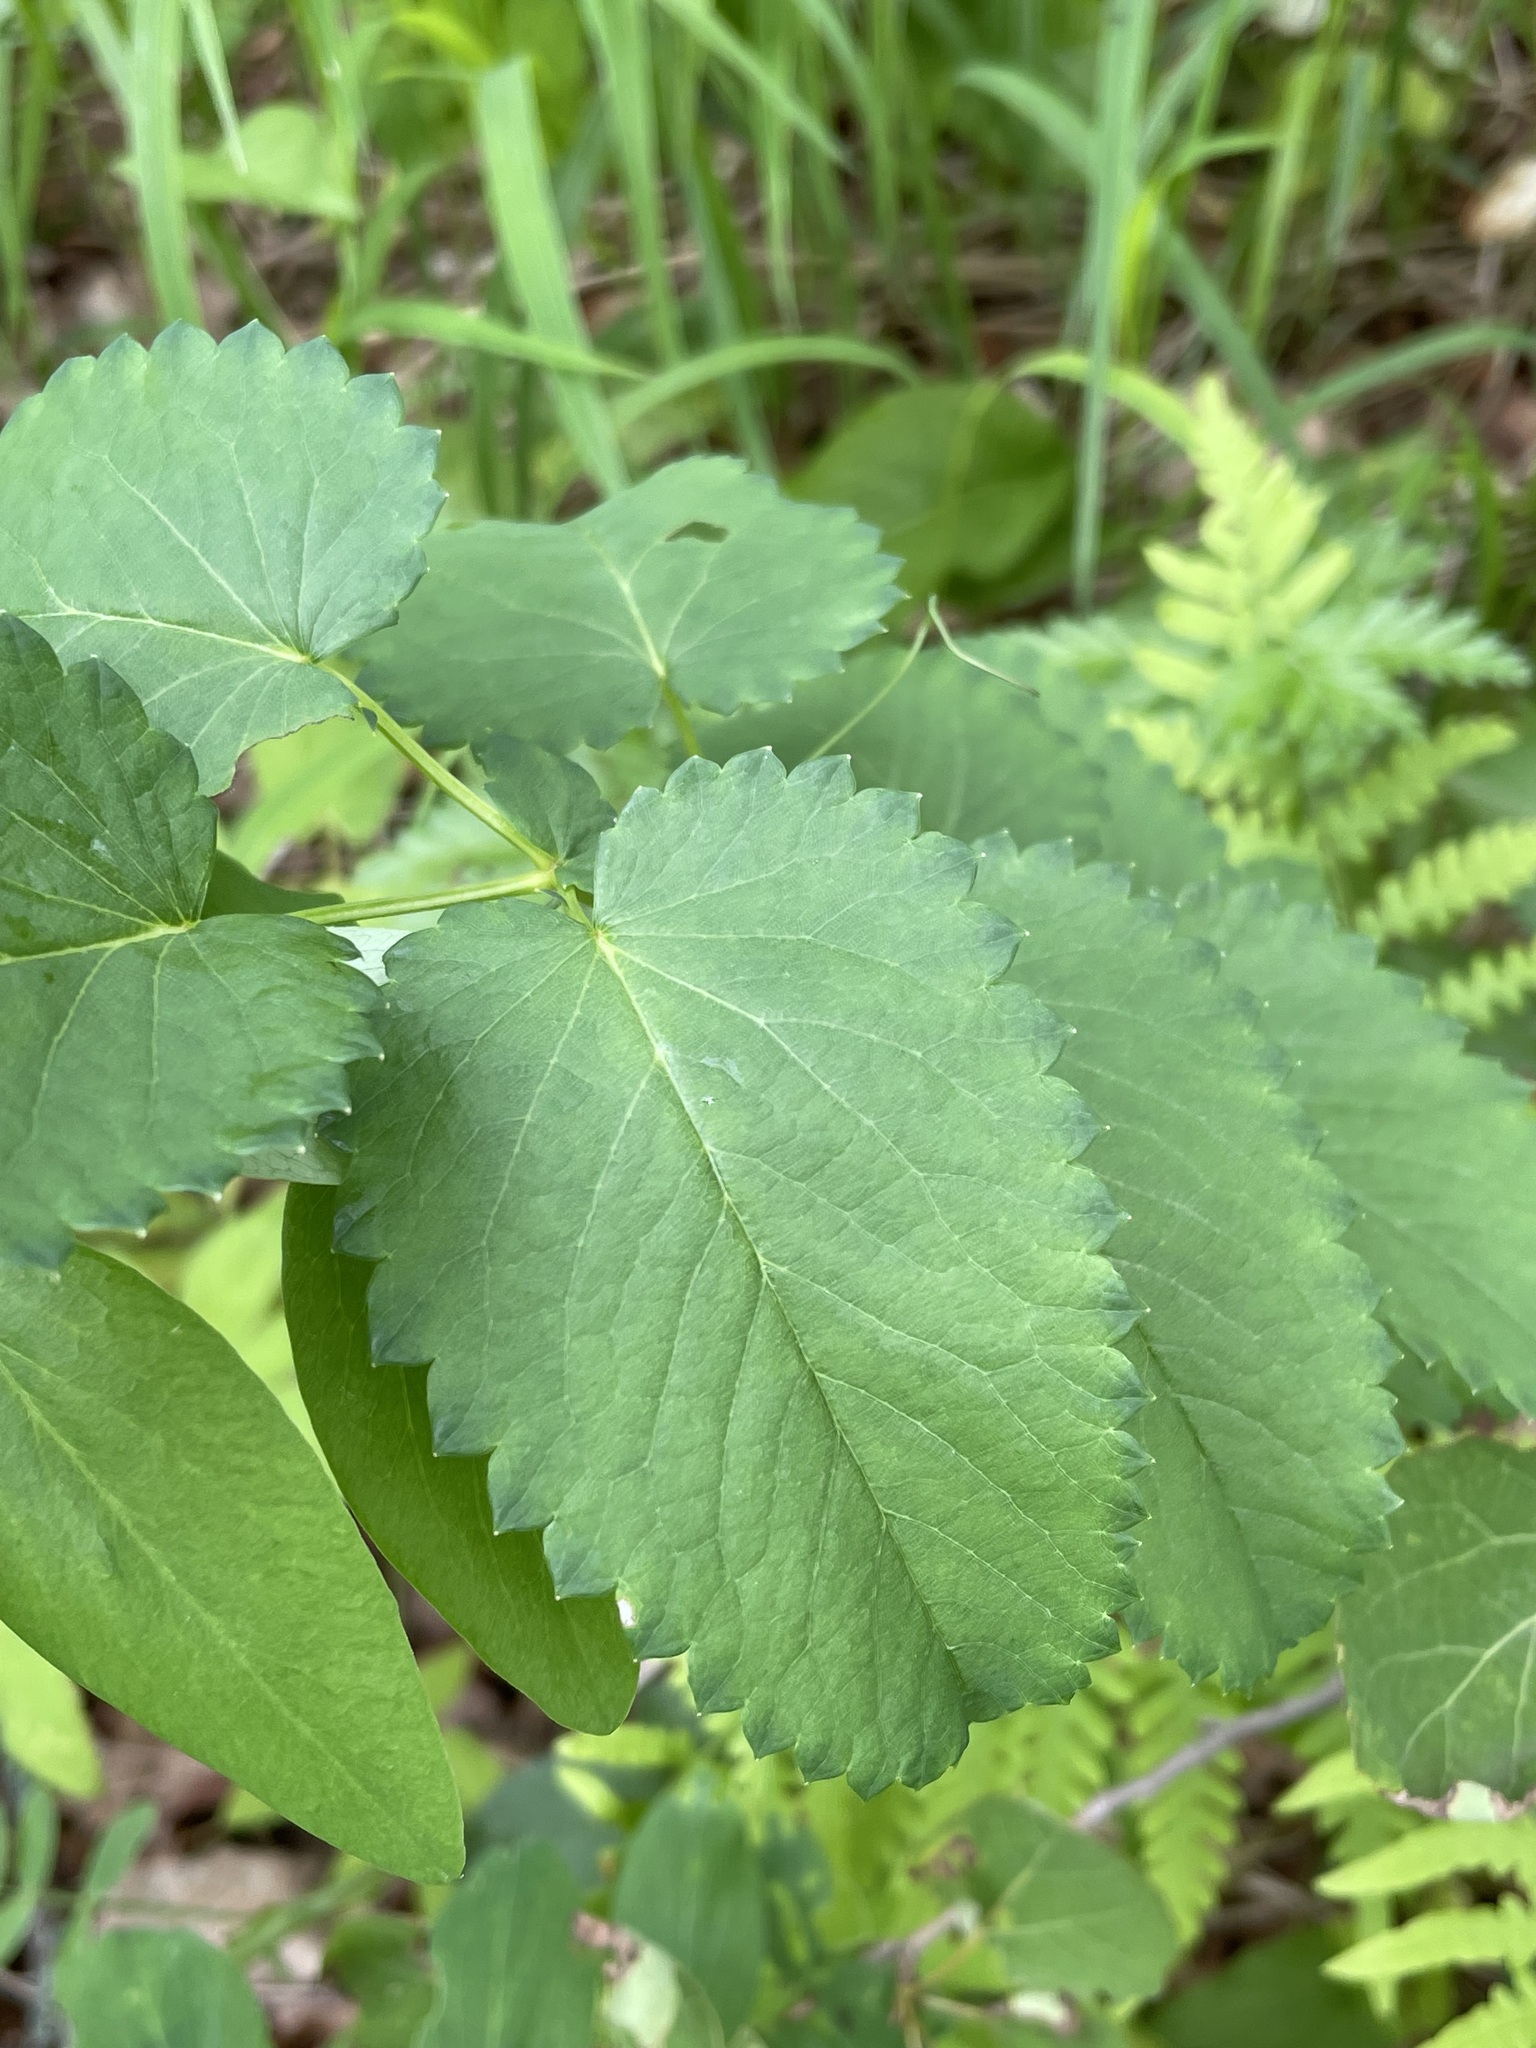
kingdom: Plantae
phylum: Tracheophyta
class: Magnoliopsida
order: Rosales
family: Rosaceae
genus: Sanguisorba
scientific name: Sanguisorba officinalis
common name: Great burnet
